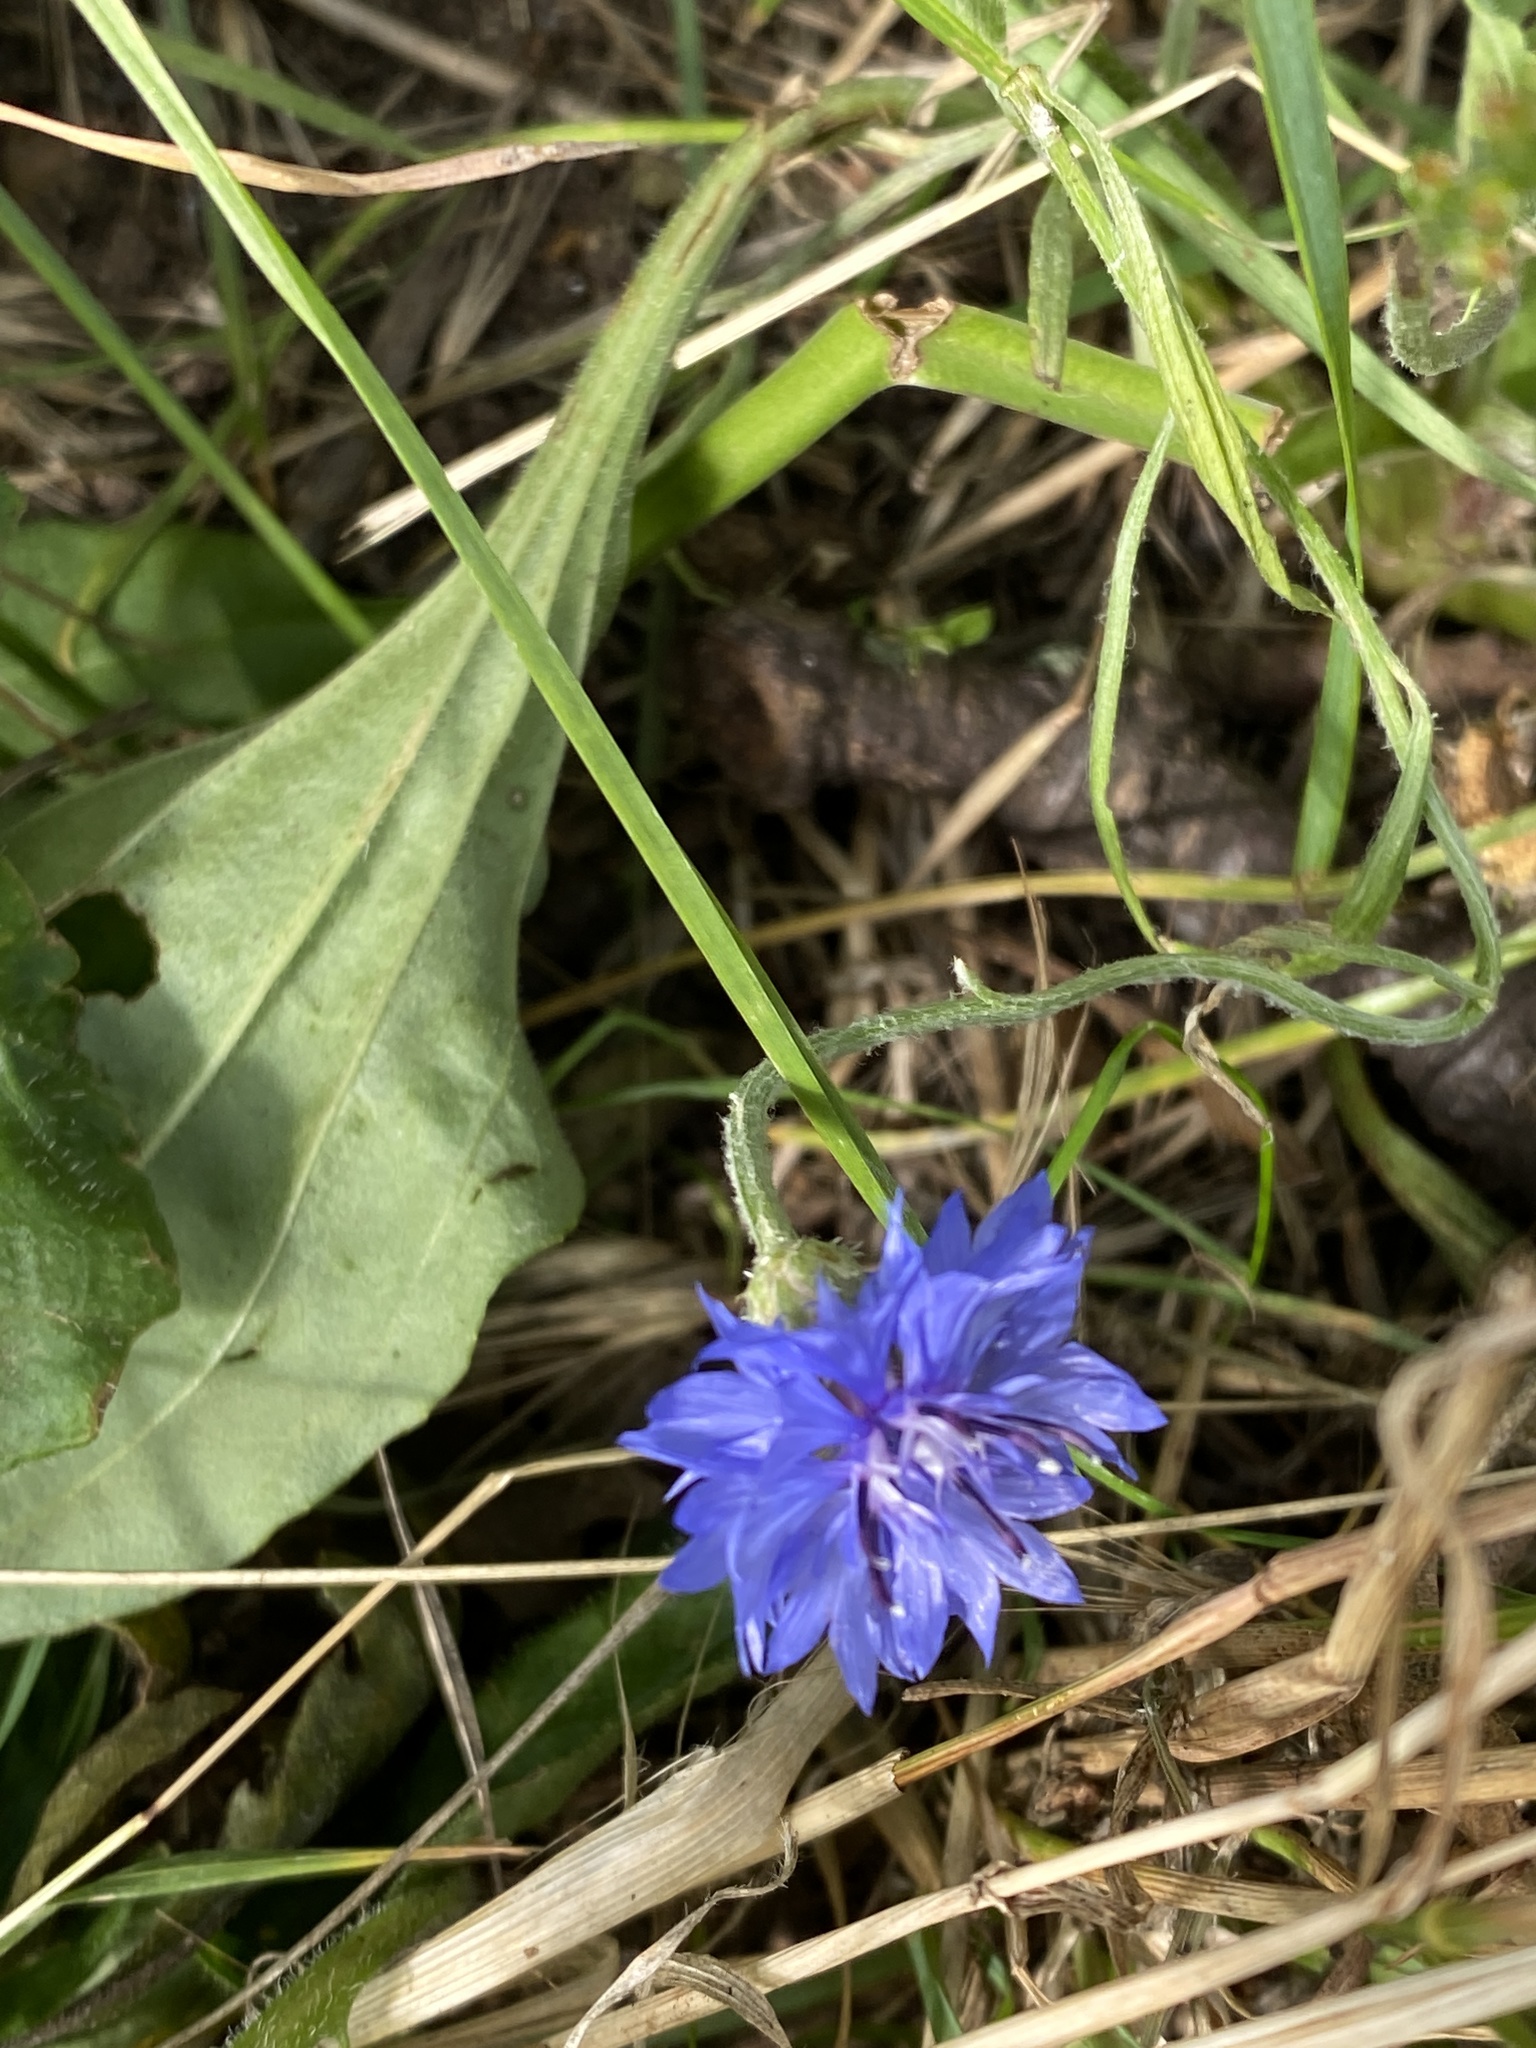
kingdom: Plantae
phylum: Tracheophyta
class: Magnoliopsida
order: Asterales
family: Asteraceae
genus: Centaurea
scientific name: Centaurea cyanus
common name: Cornflower
